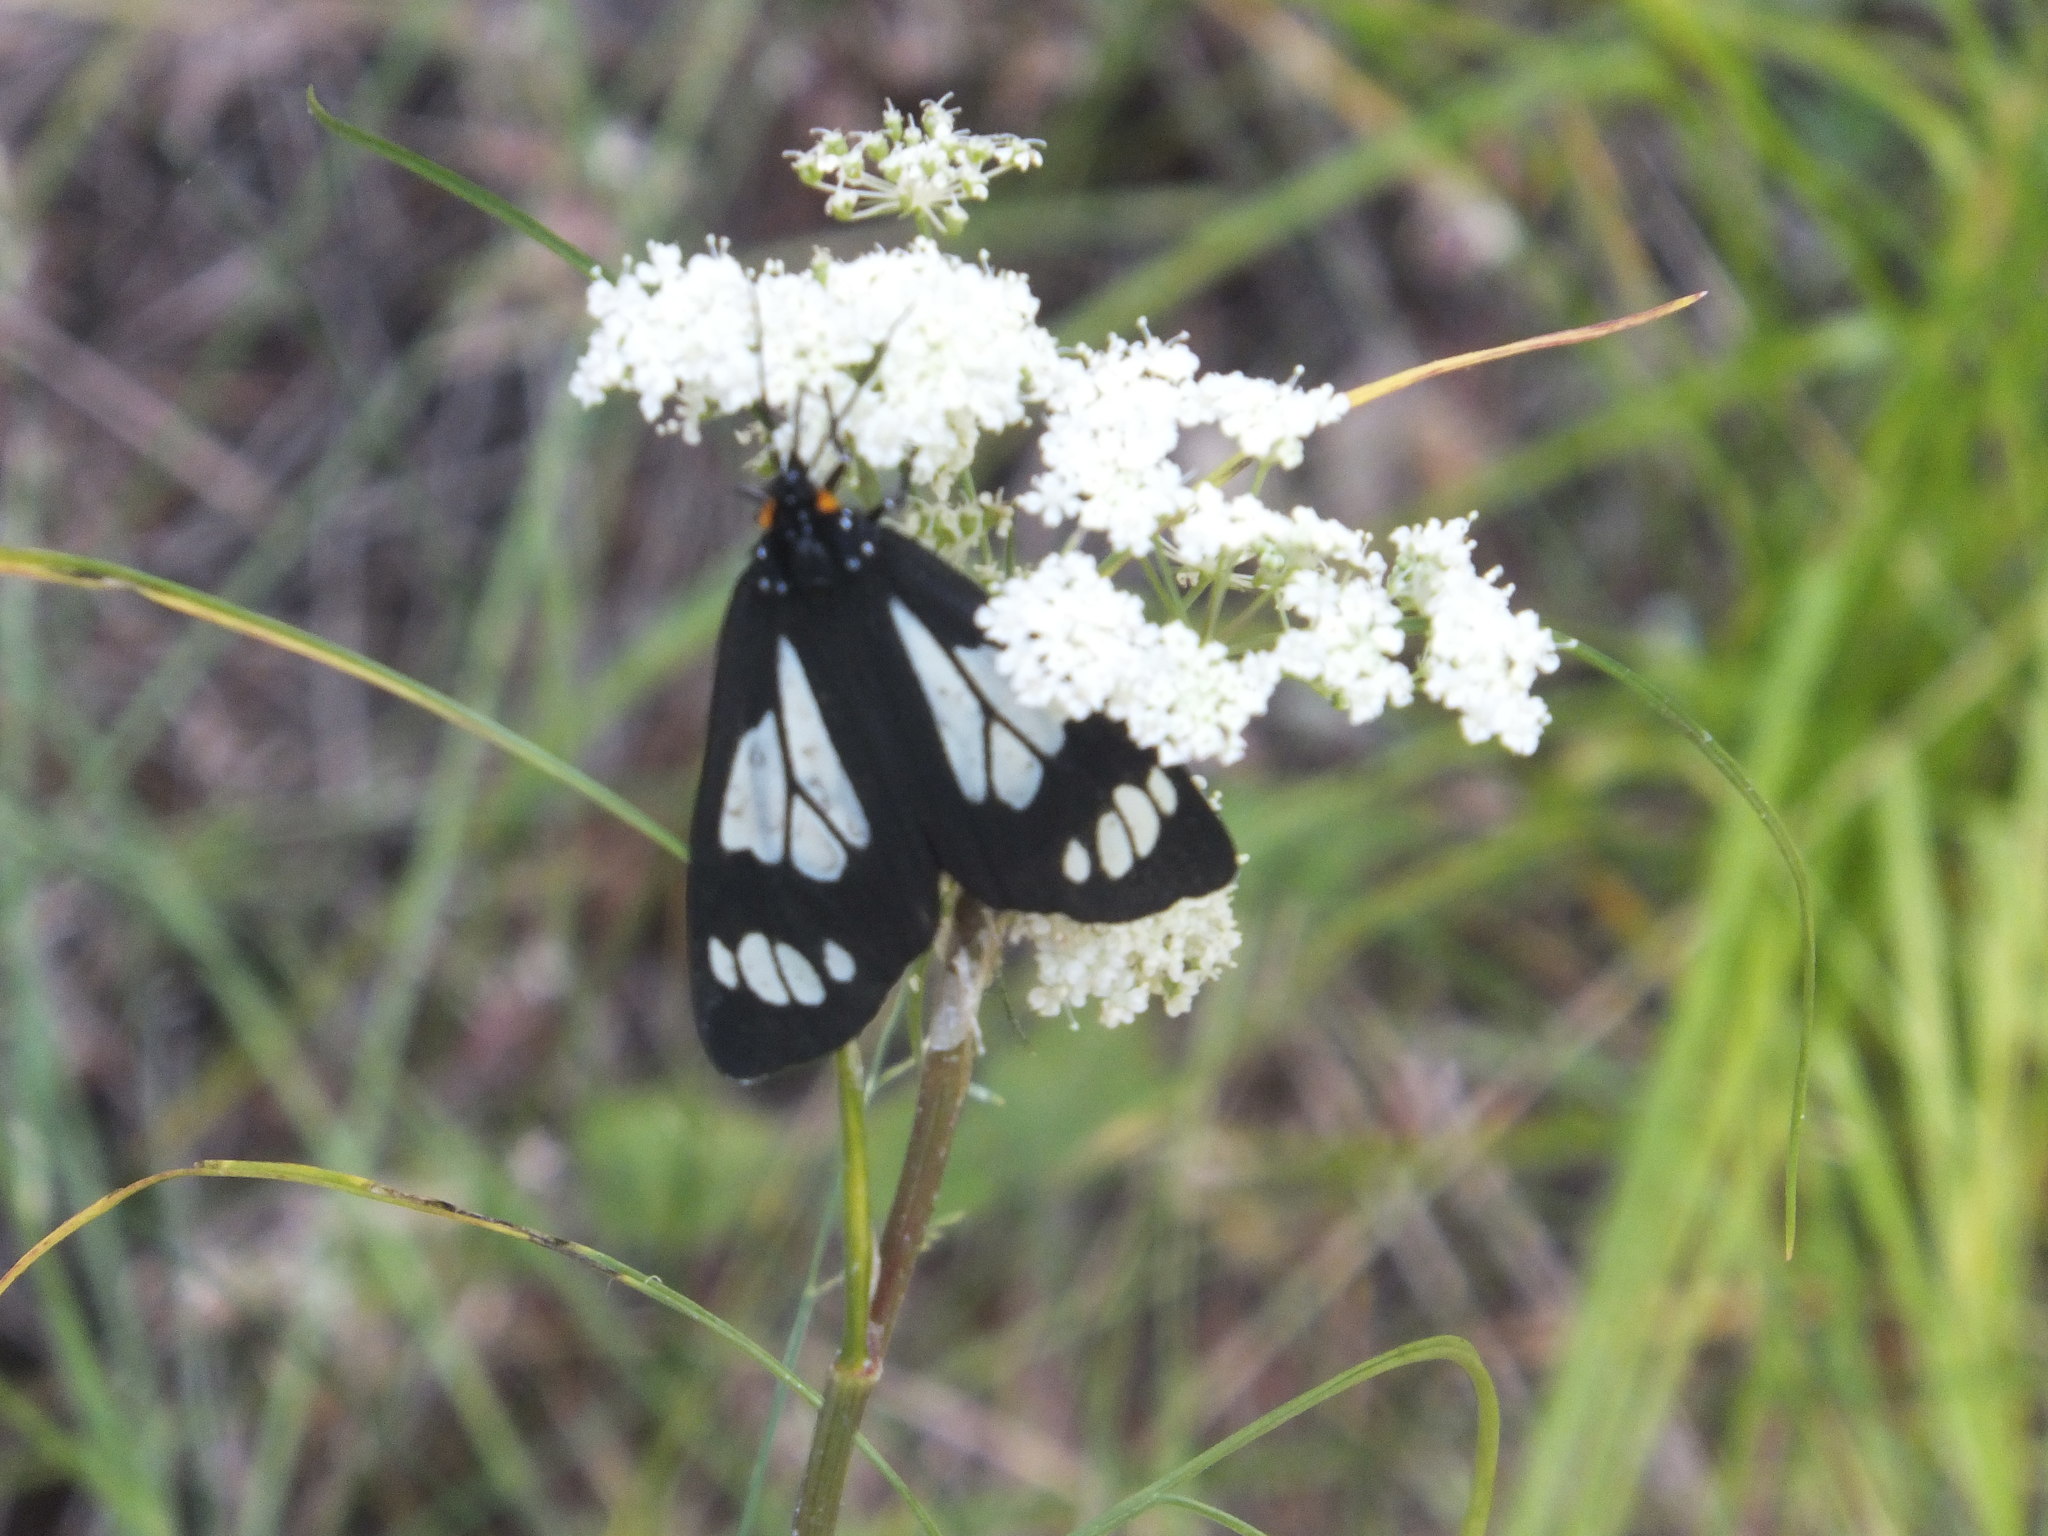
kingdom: Animalia
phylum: Arthropoda
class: Insecta
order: Lepidoptera
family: Erebidae
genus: Gnophaela
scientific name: Gnophaela vermiculata
